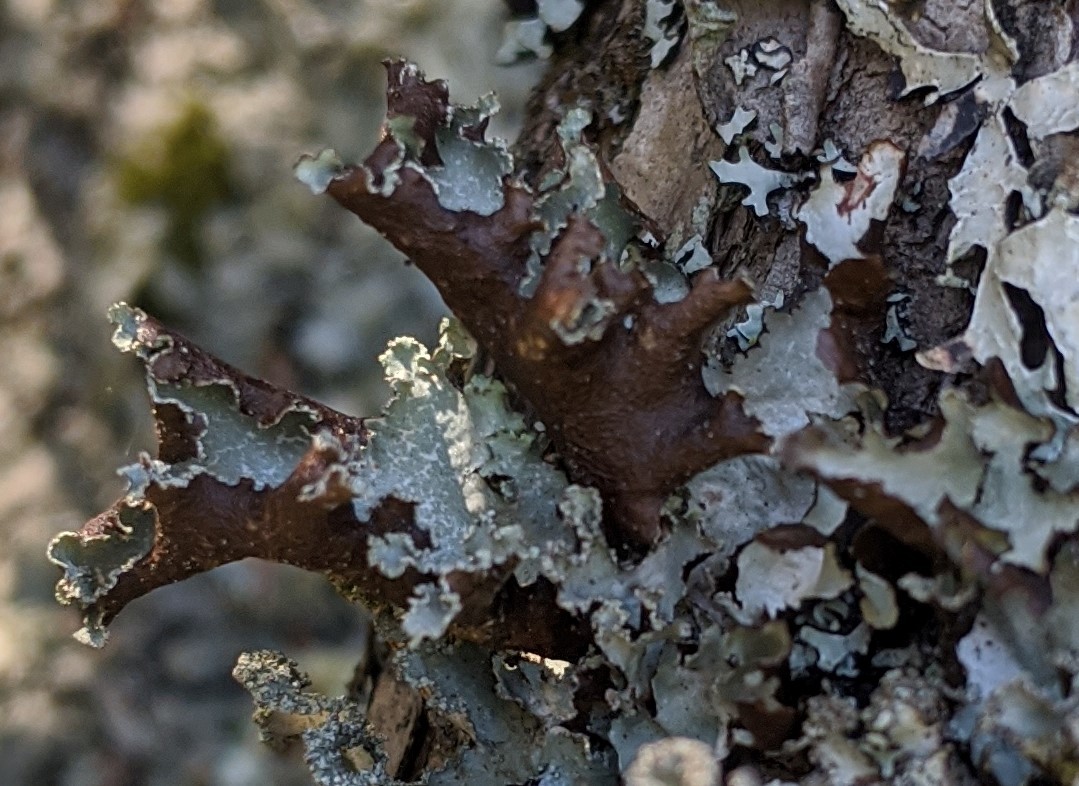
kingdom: Fungi
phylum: Ascomycota
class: Lecanoromycetes
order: Lecanorales
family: Parmeliaceae
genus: Platismatia
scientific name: Platismatia glauca
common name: Varied rag lichen
